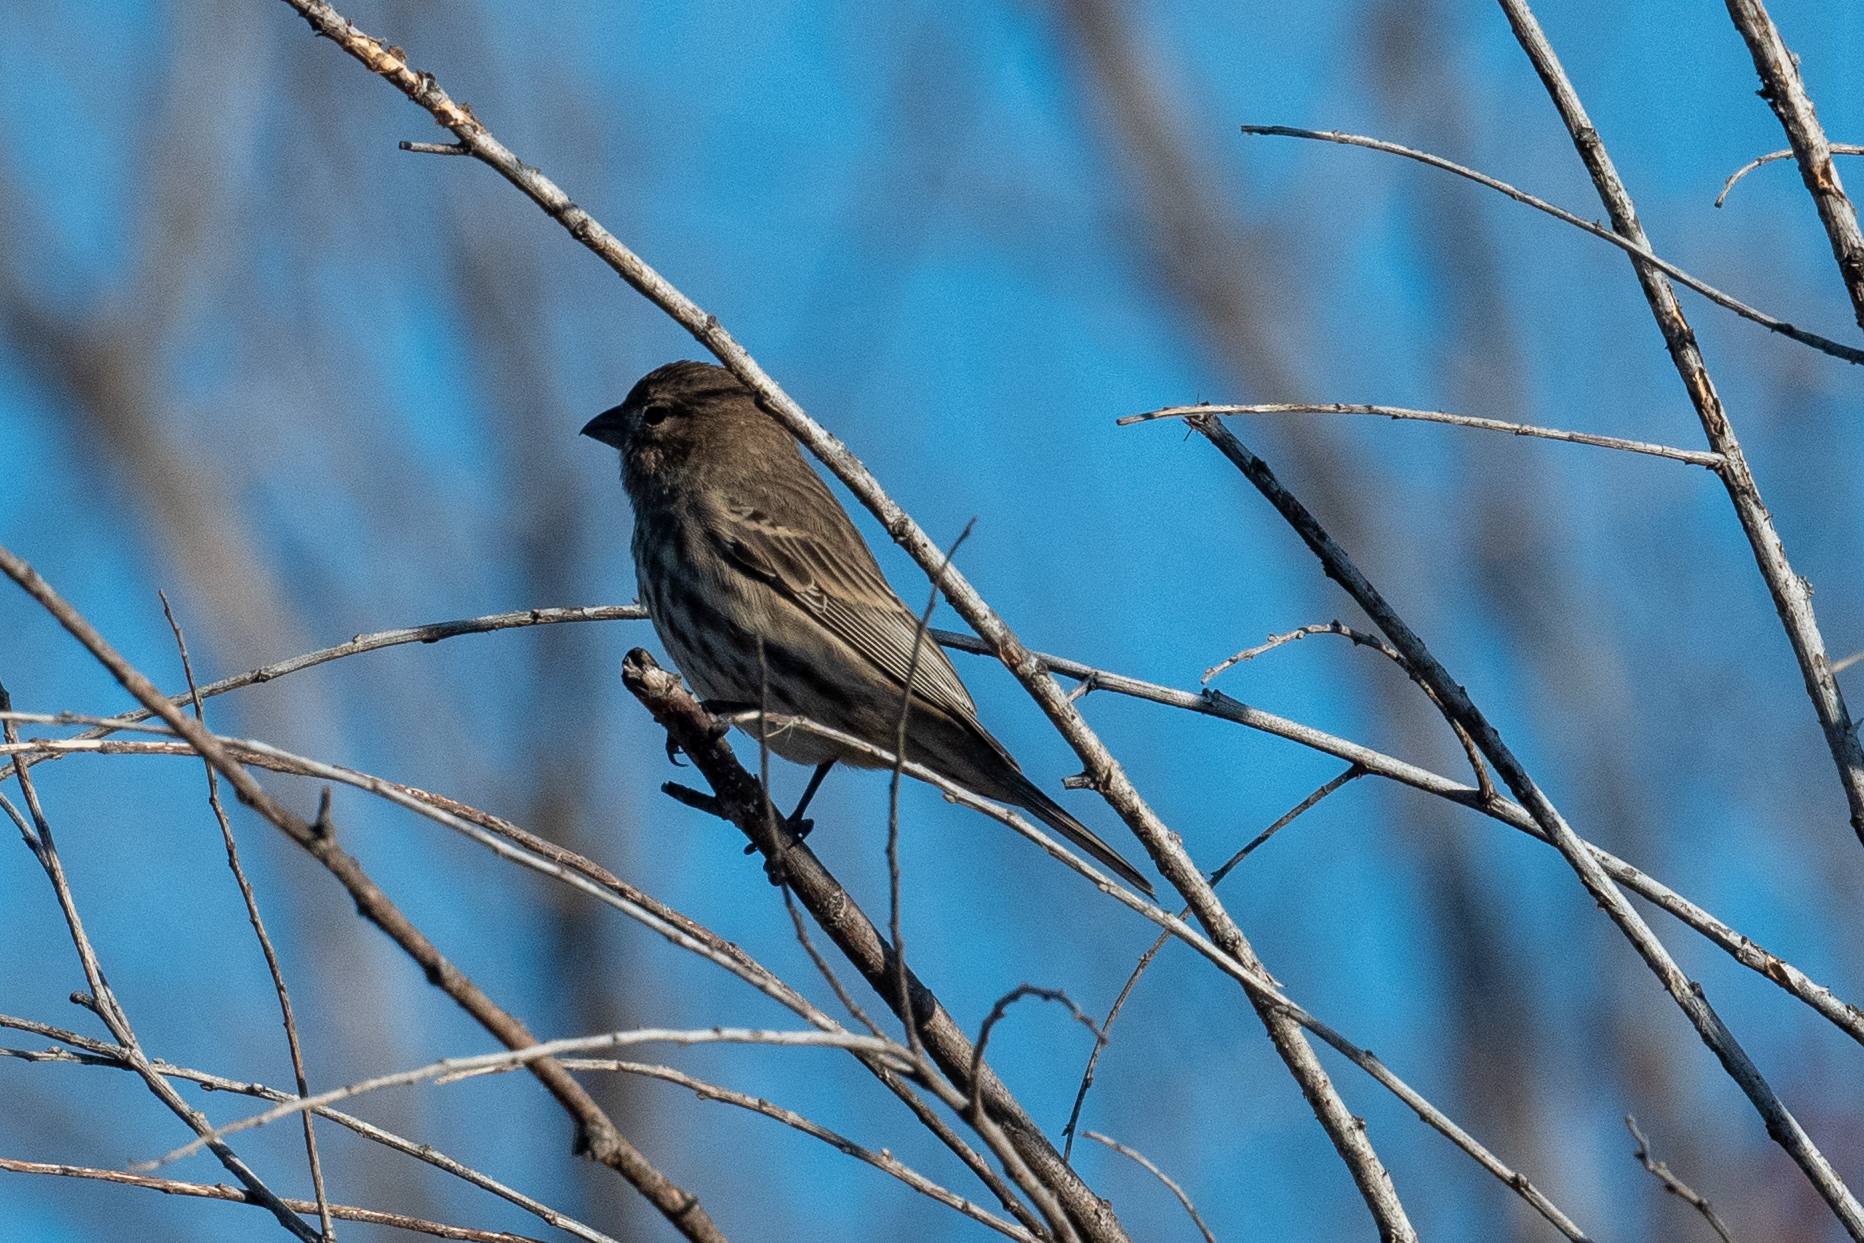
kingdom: Animalia
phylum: Chordata
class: Aves
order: Passeriformes
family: Fringillidae
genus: Haemorhous
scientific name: Haemorhous mexicanus
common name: House finch
